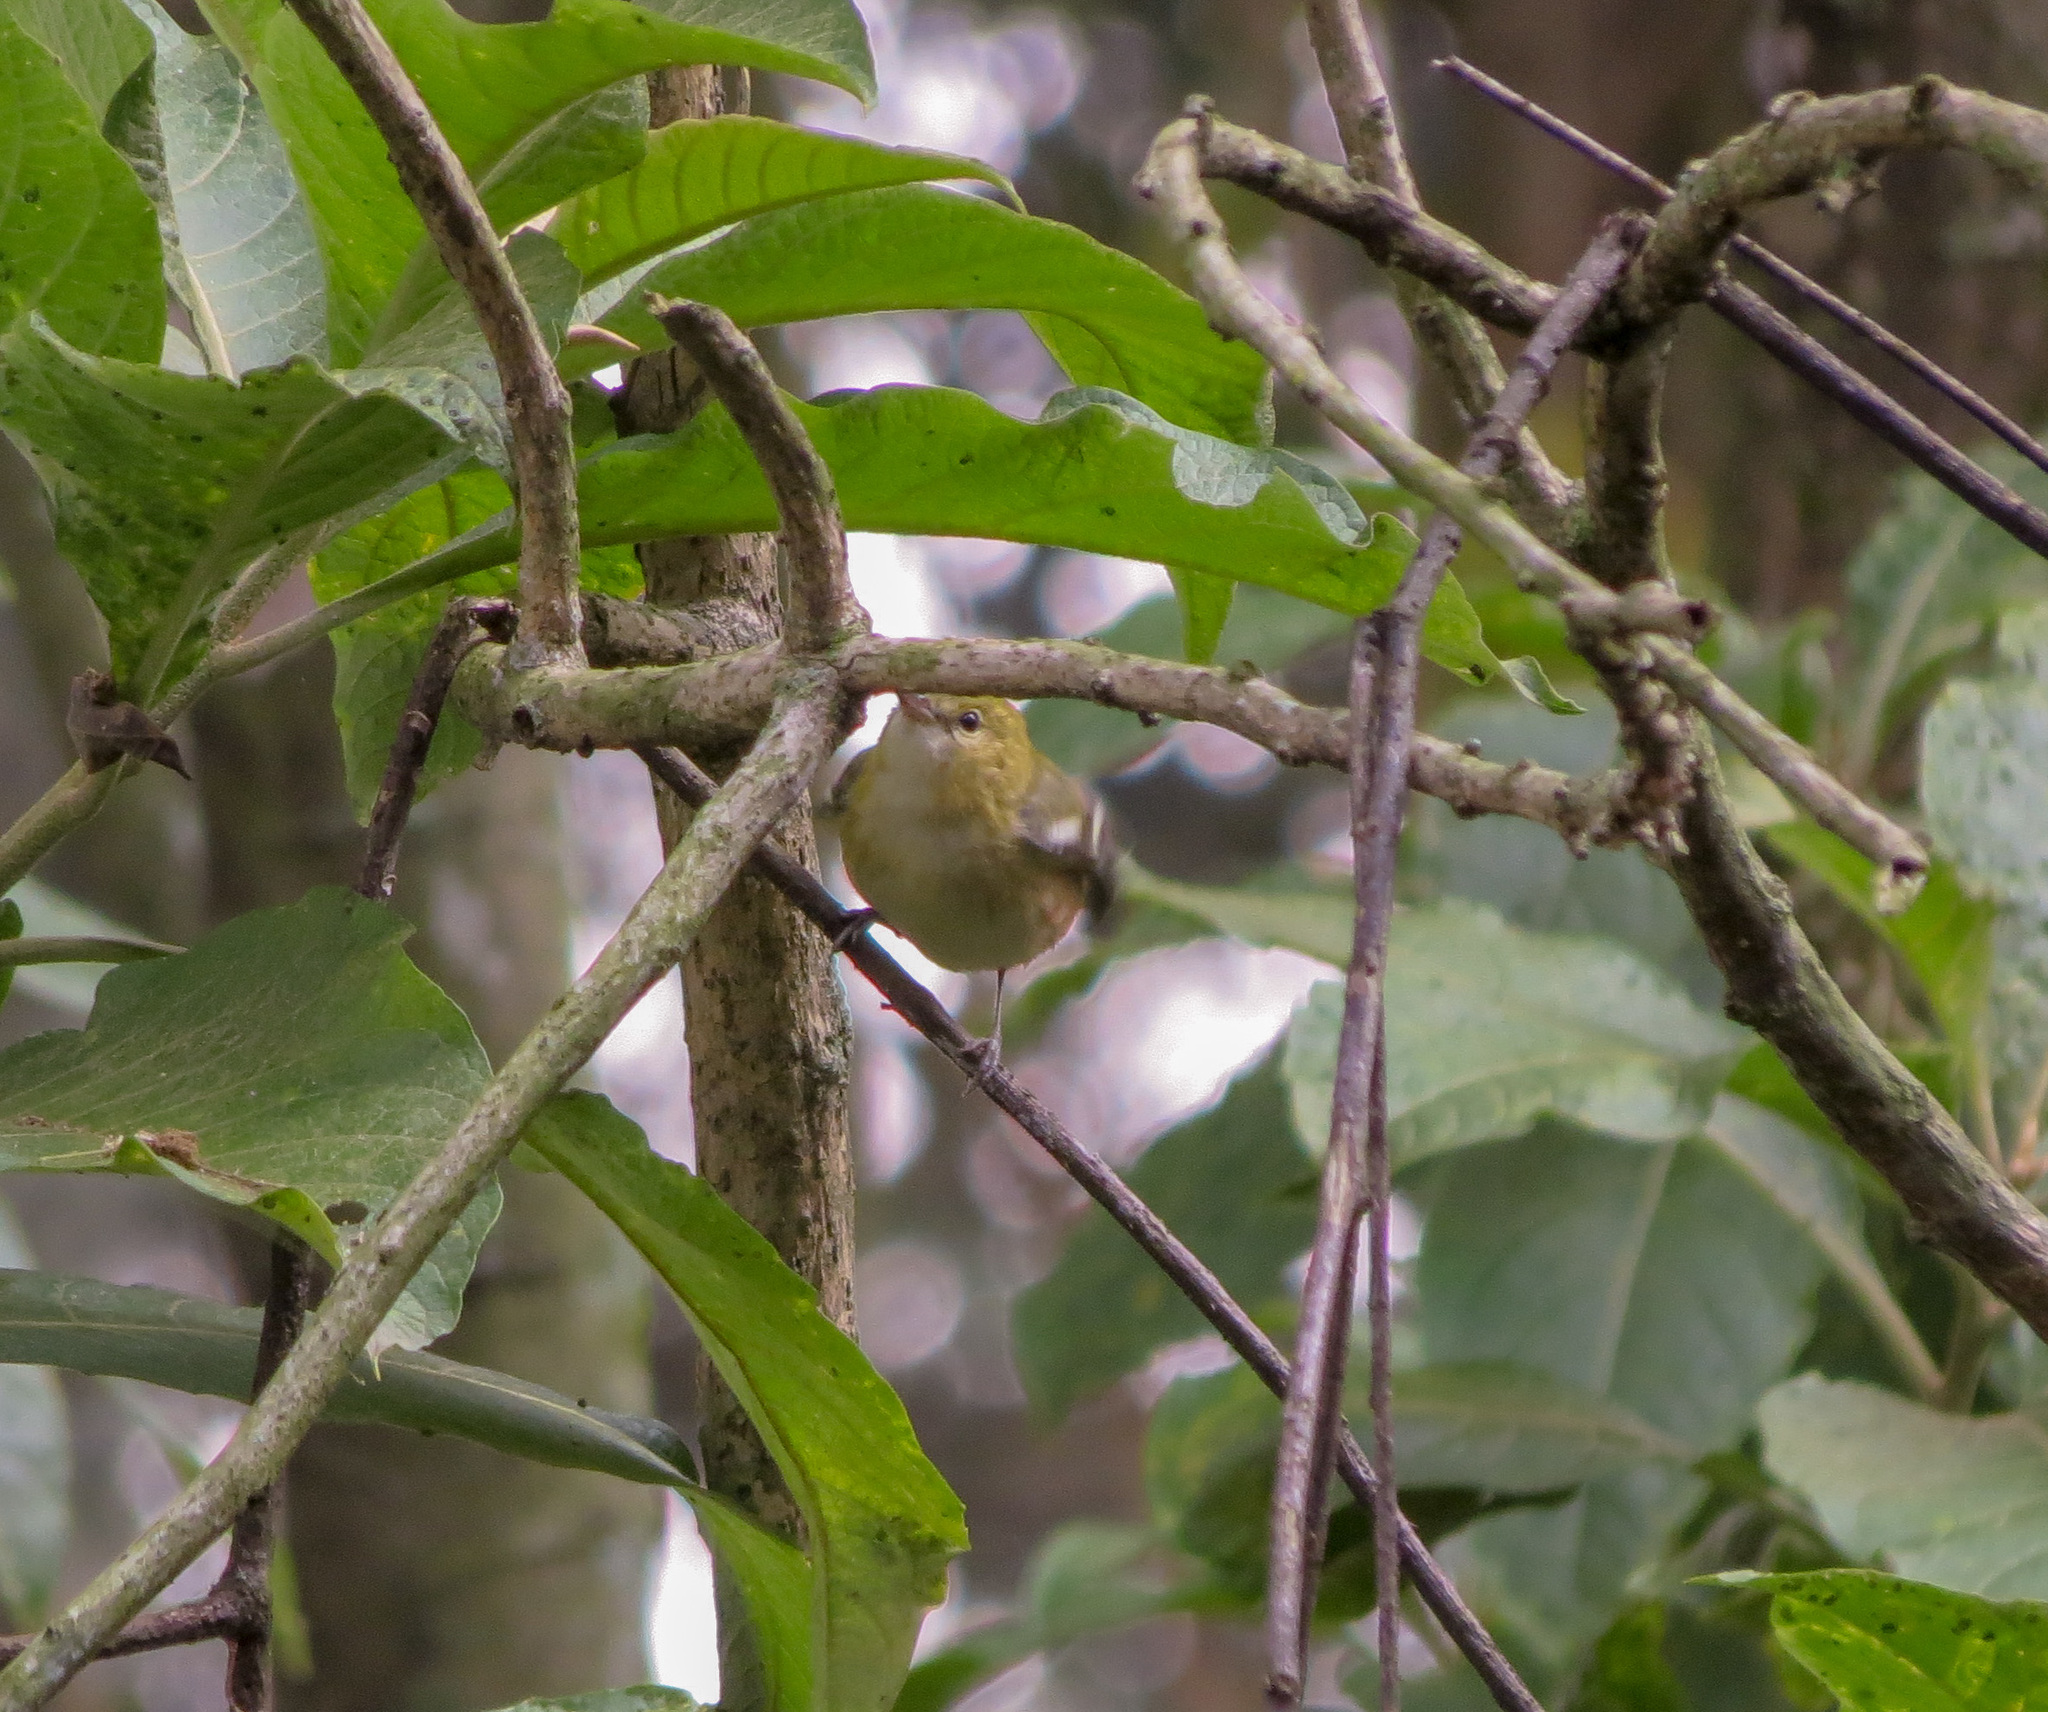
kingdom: Animalia
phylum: Chordata
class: Aves
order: Passeriformes
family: Parulidae
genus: Setophaga
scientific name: Setophaga castanea
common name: Bay-breasted warbler
